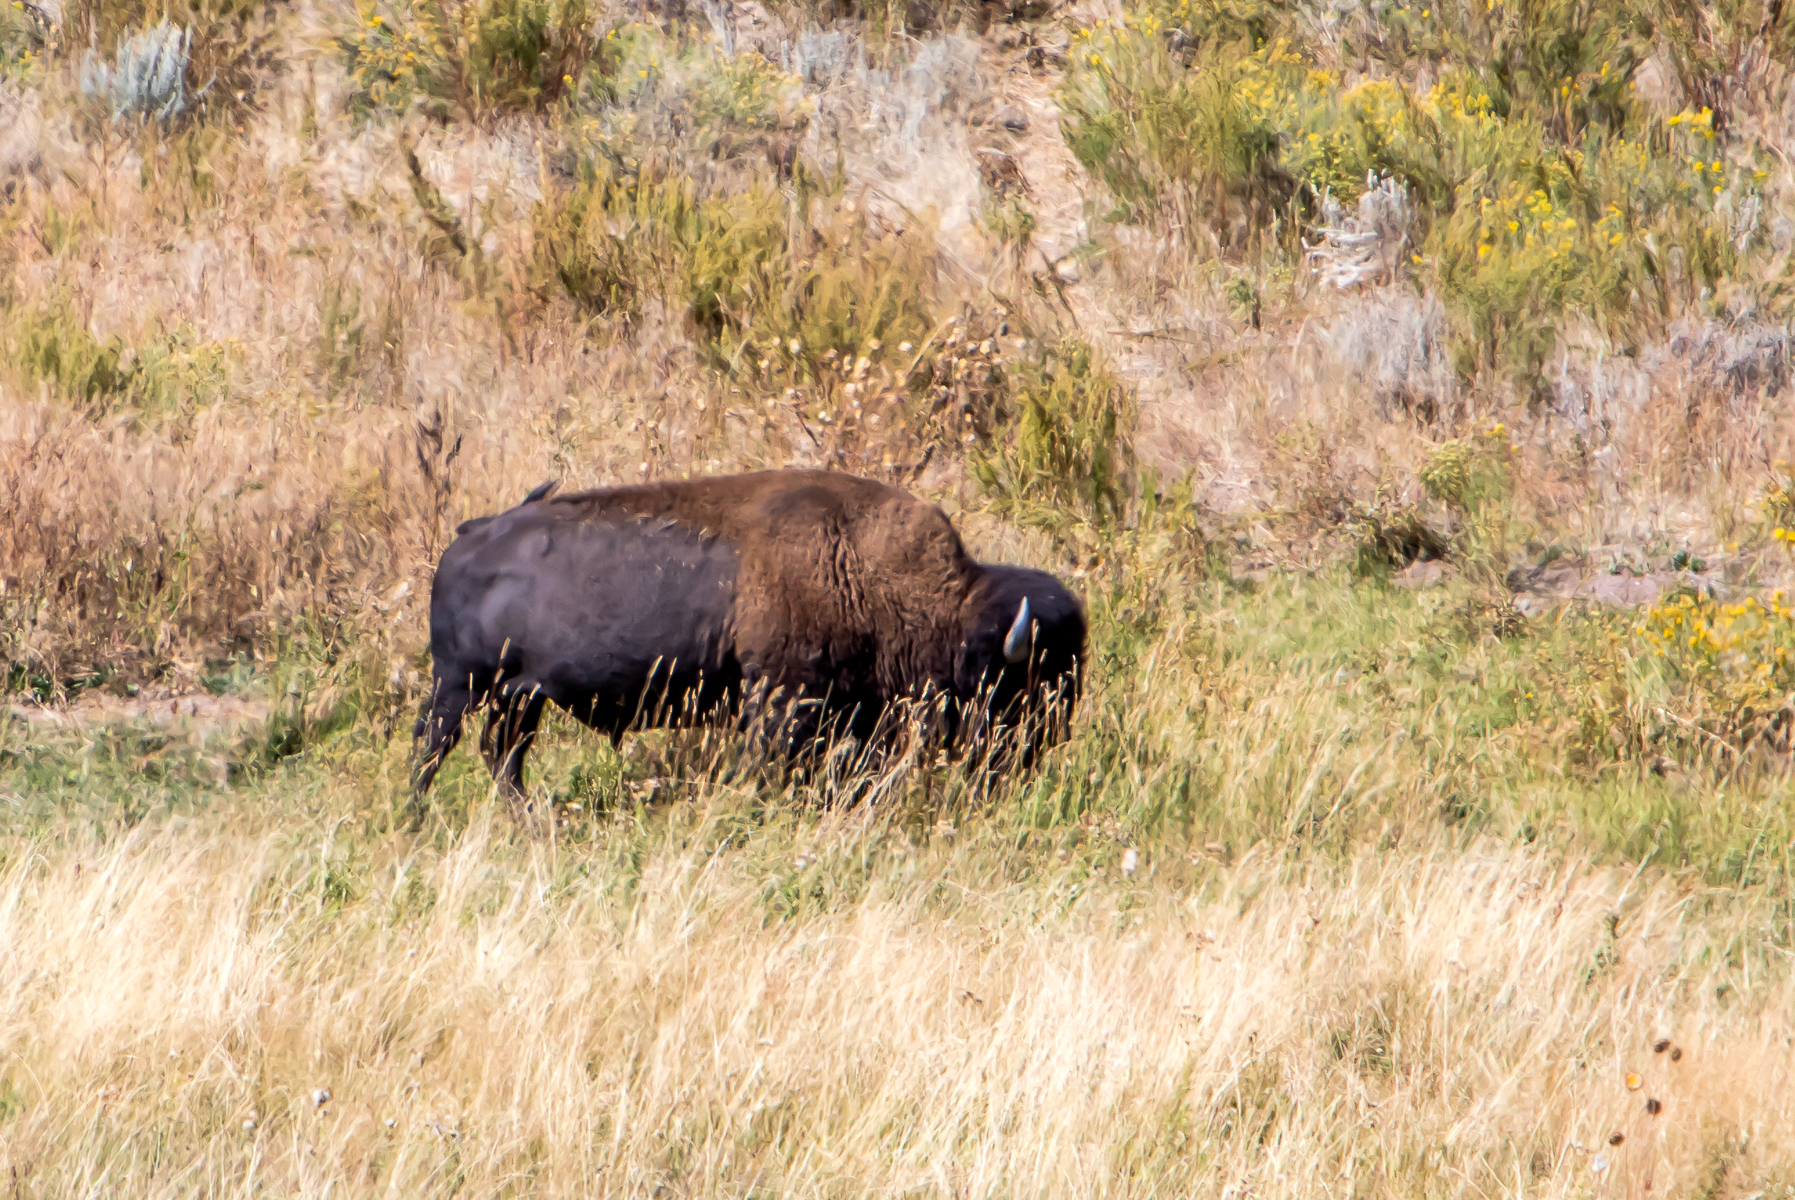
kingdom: Animalia
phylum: Chordata
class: Mammalia
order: Artiodactyla
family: Bovidae
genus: Bison
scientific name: Bison bison
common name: American bison
